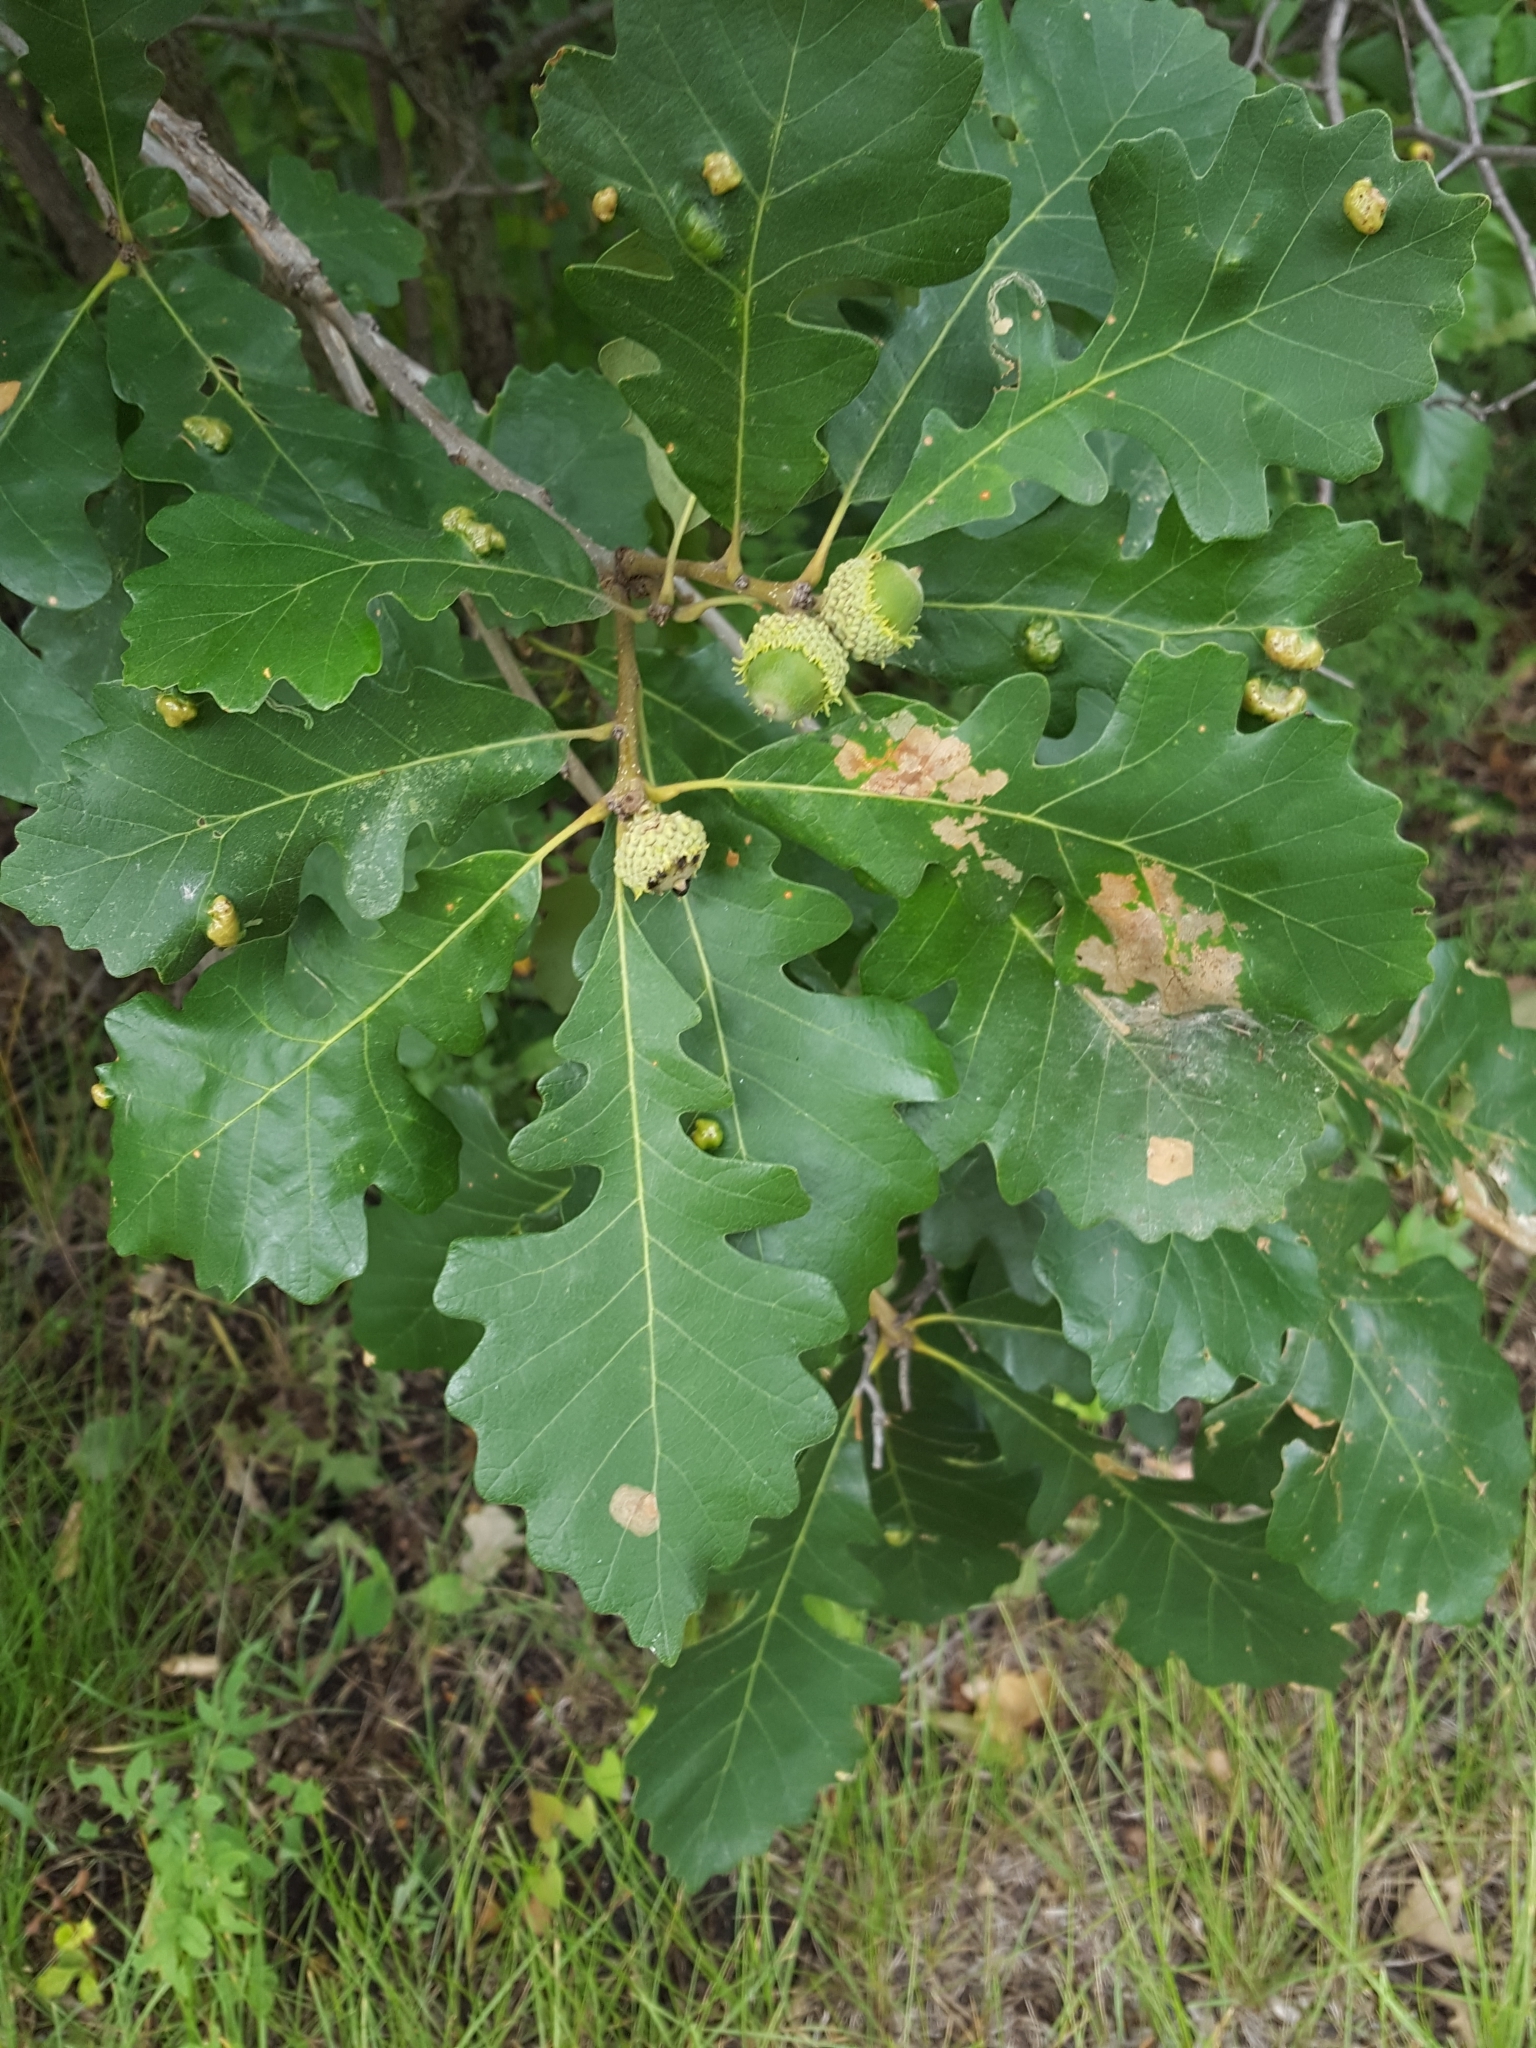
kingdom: Plantae
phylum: Tracheophyta
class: Magnoliopsida
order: Fagales
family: Fagaceae
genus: Quercus
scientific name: Quercus macrocarpa
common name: Bur oak
